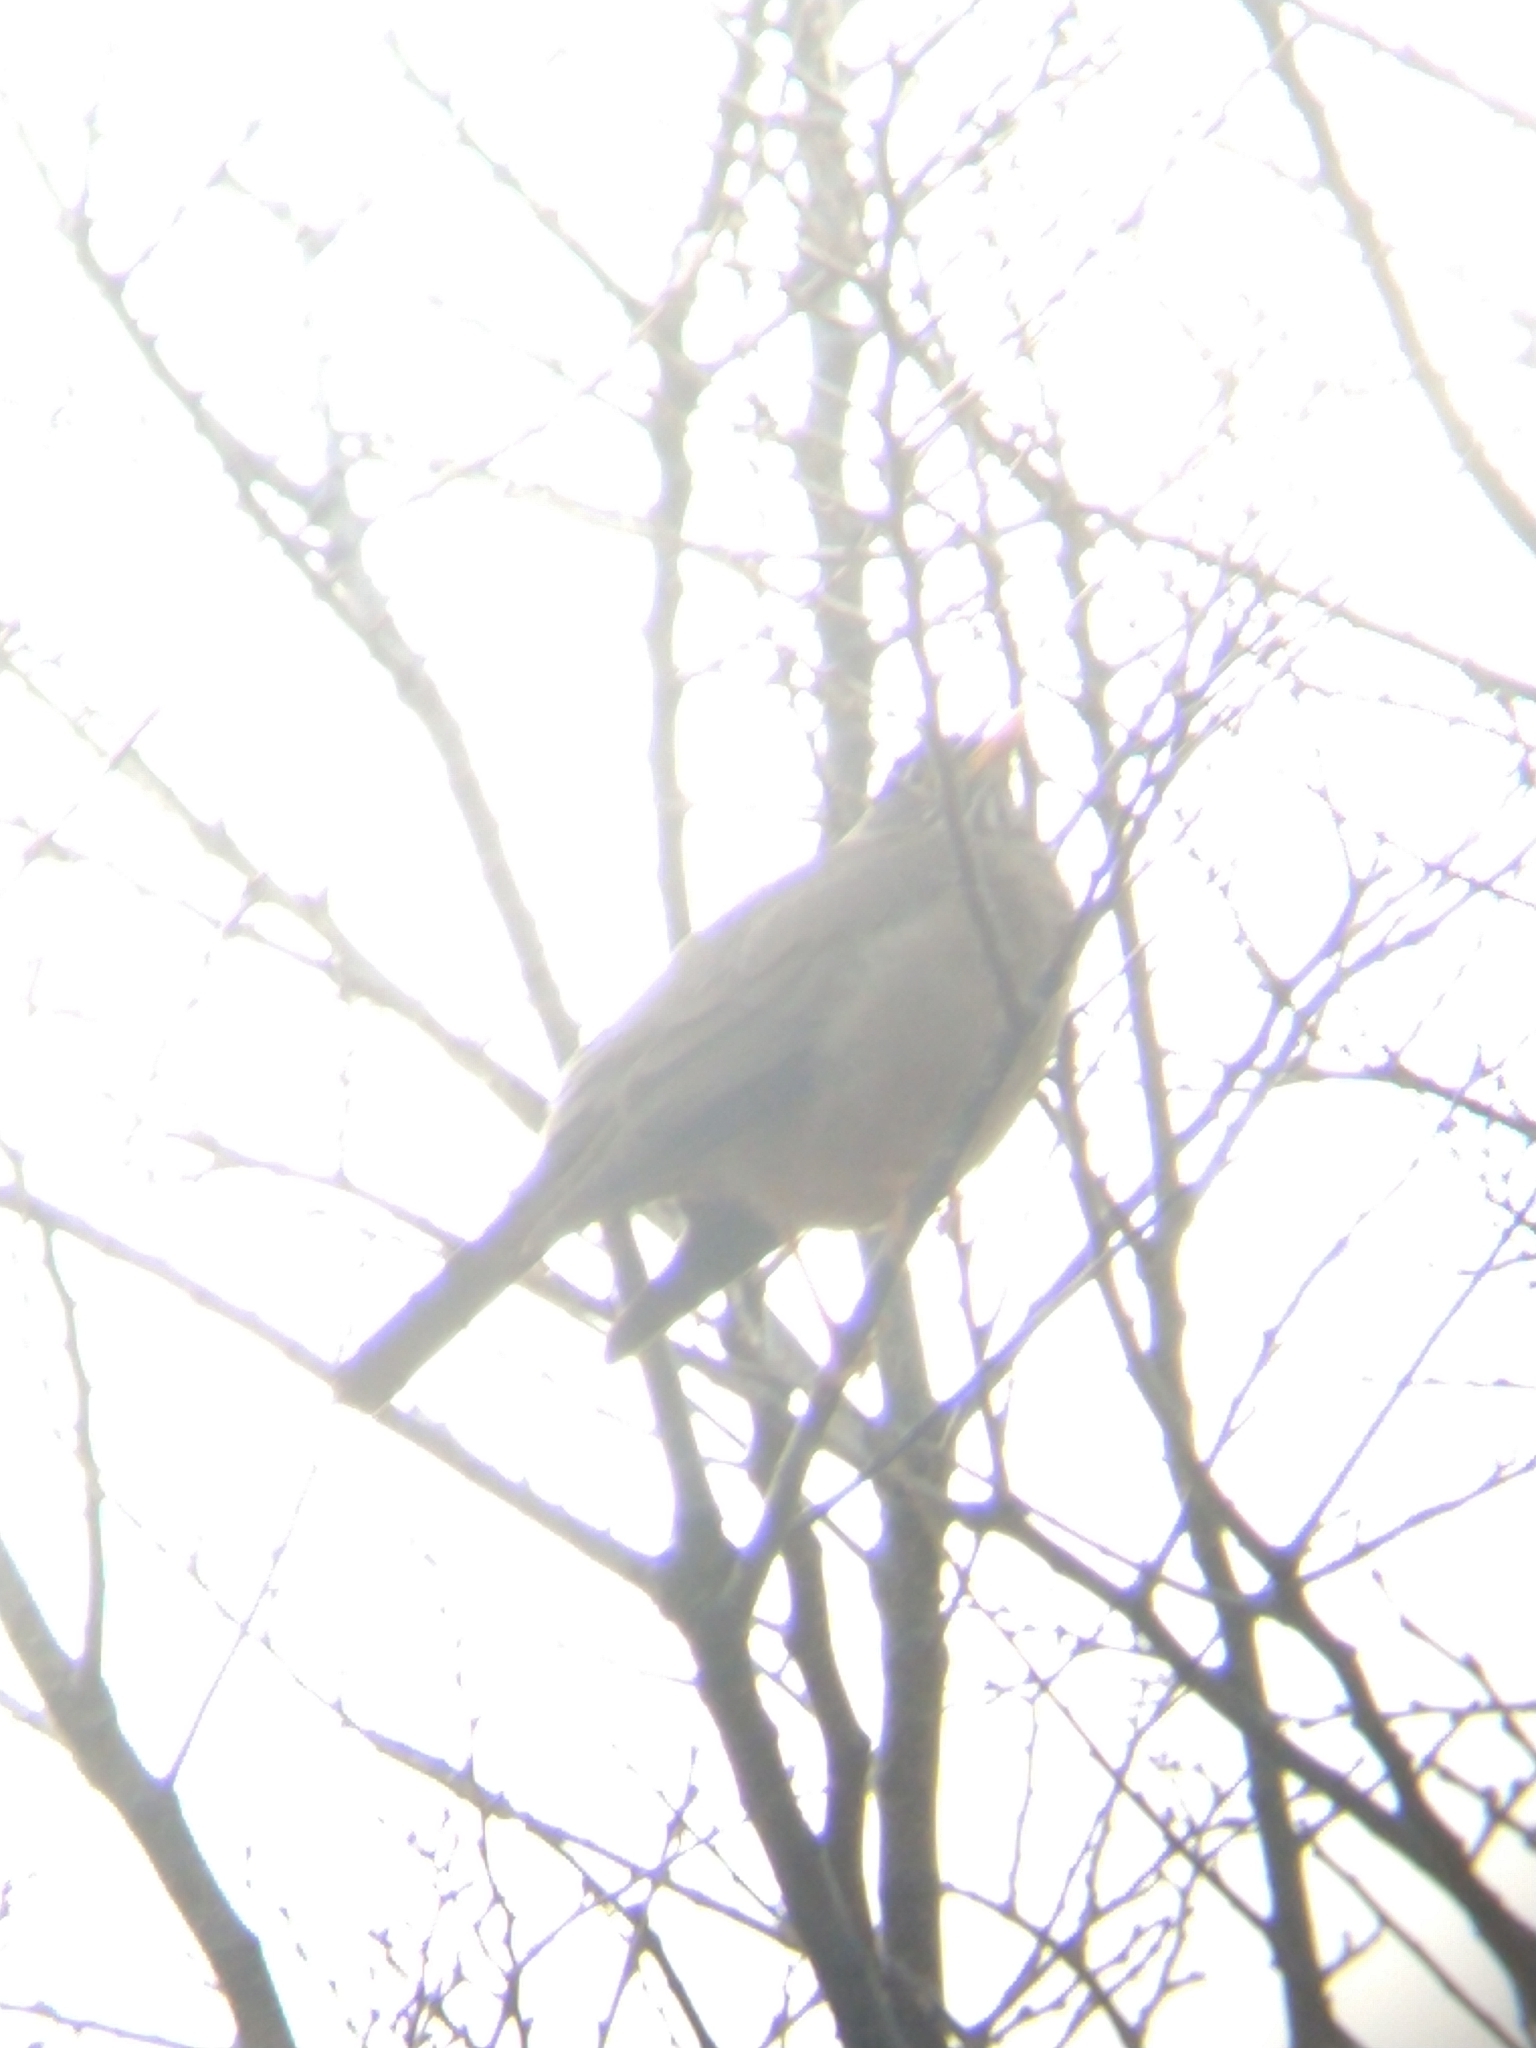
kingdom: Animalia
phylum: Chordata
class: Aves
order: Passeriformes
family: Turdidae
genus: Turdus
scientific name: Turdus falcklandii
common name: Austral thrush
